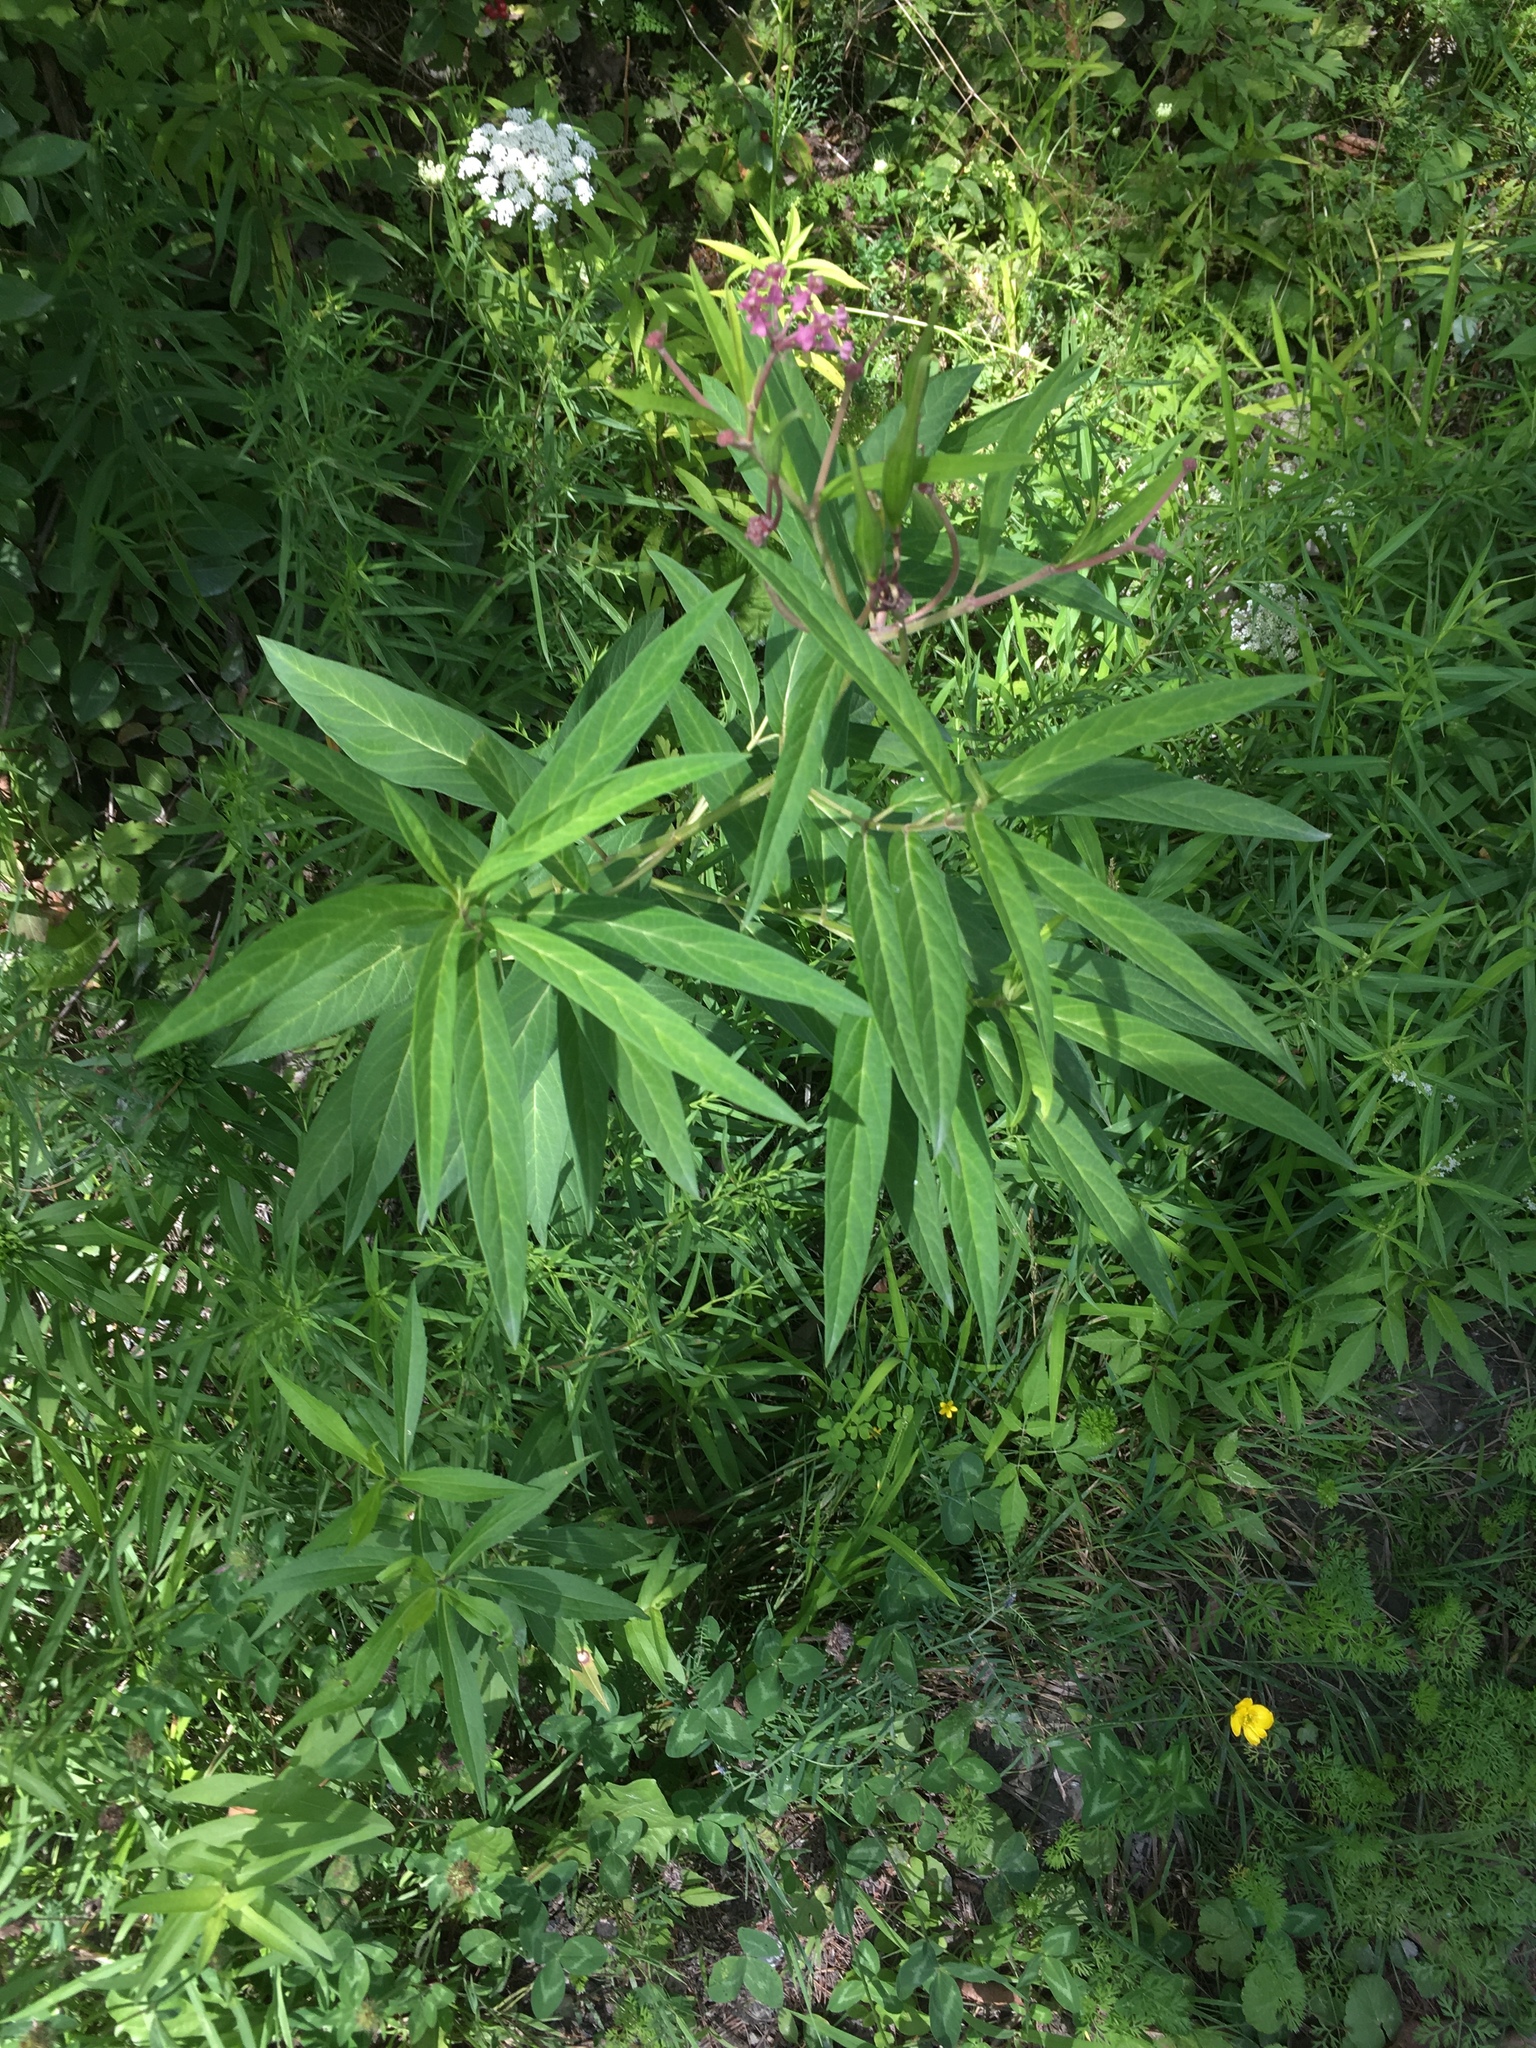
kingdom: Plantae
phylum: Tracheophyta
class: Magnoliopsida
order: Gentianales
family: Apocynaceae
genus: Asclepias
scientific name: Asclepias incarnata
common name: Swamp milkweed
